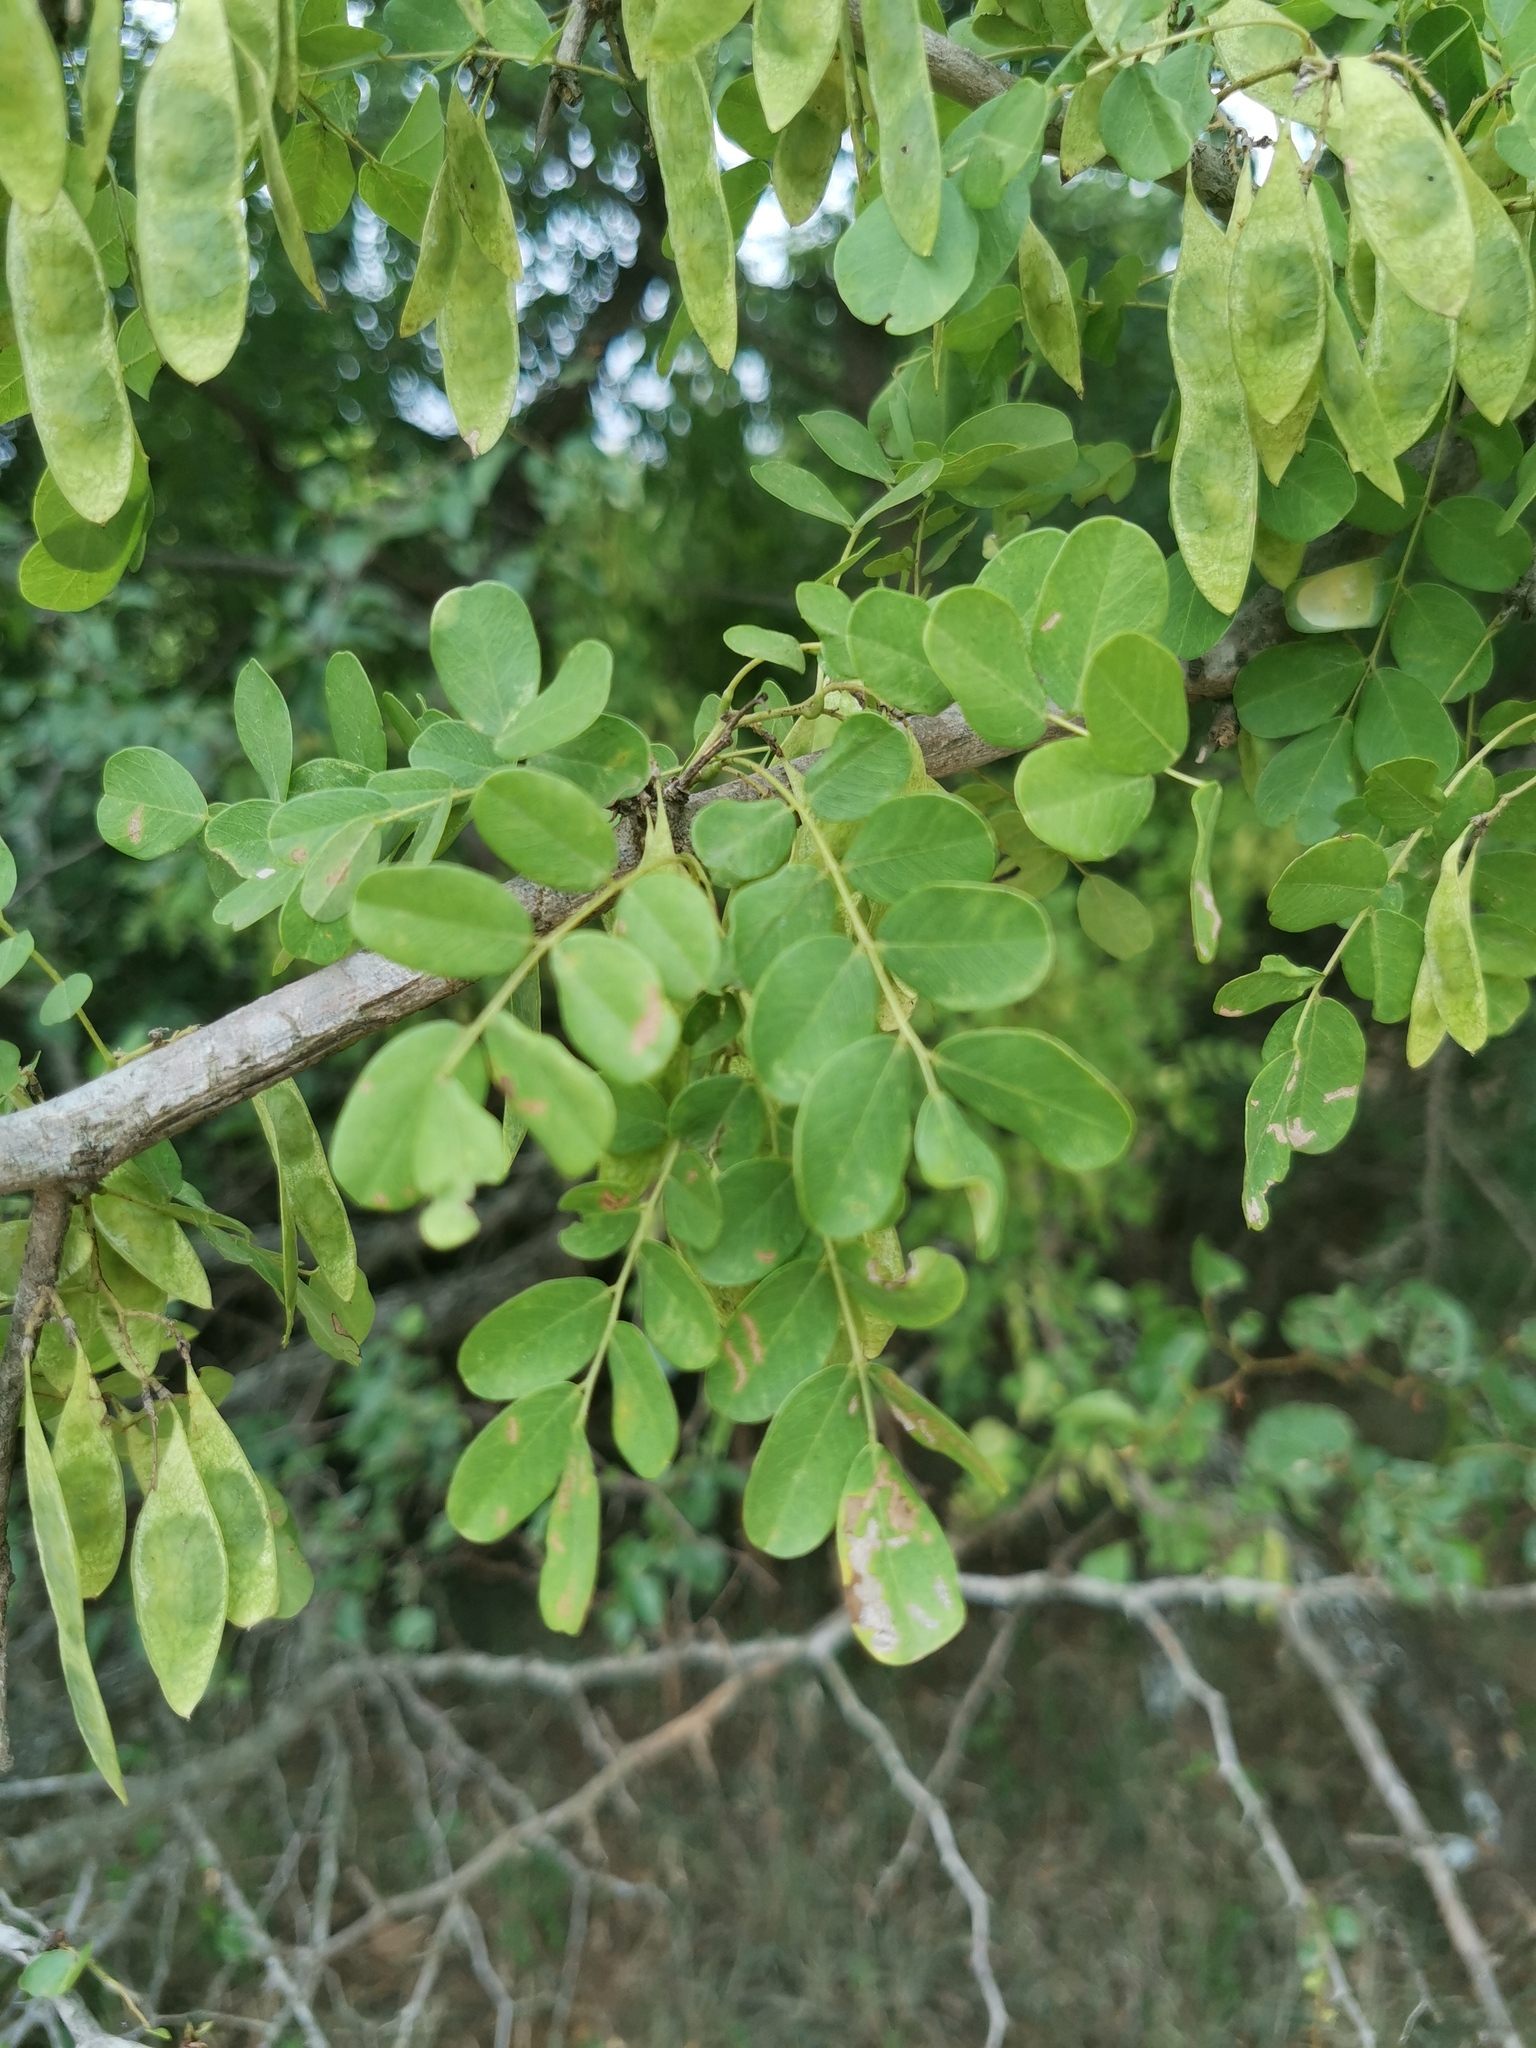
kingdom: Plantae
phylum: Tracheophyta
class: Magnoliopsida
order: Fabales
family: Fabaceae
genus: Dalbergia
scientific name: Dalbergia melanoxylon
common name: African blackwood
